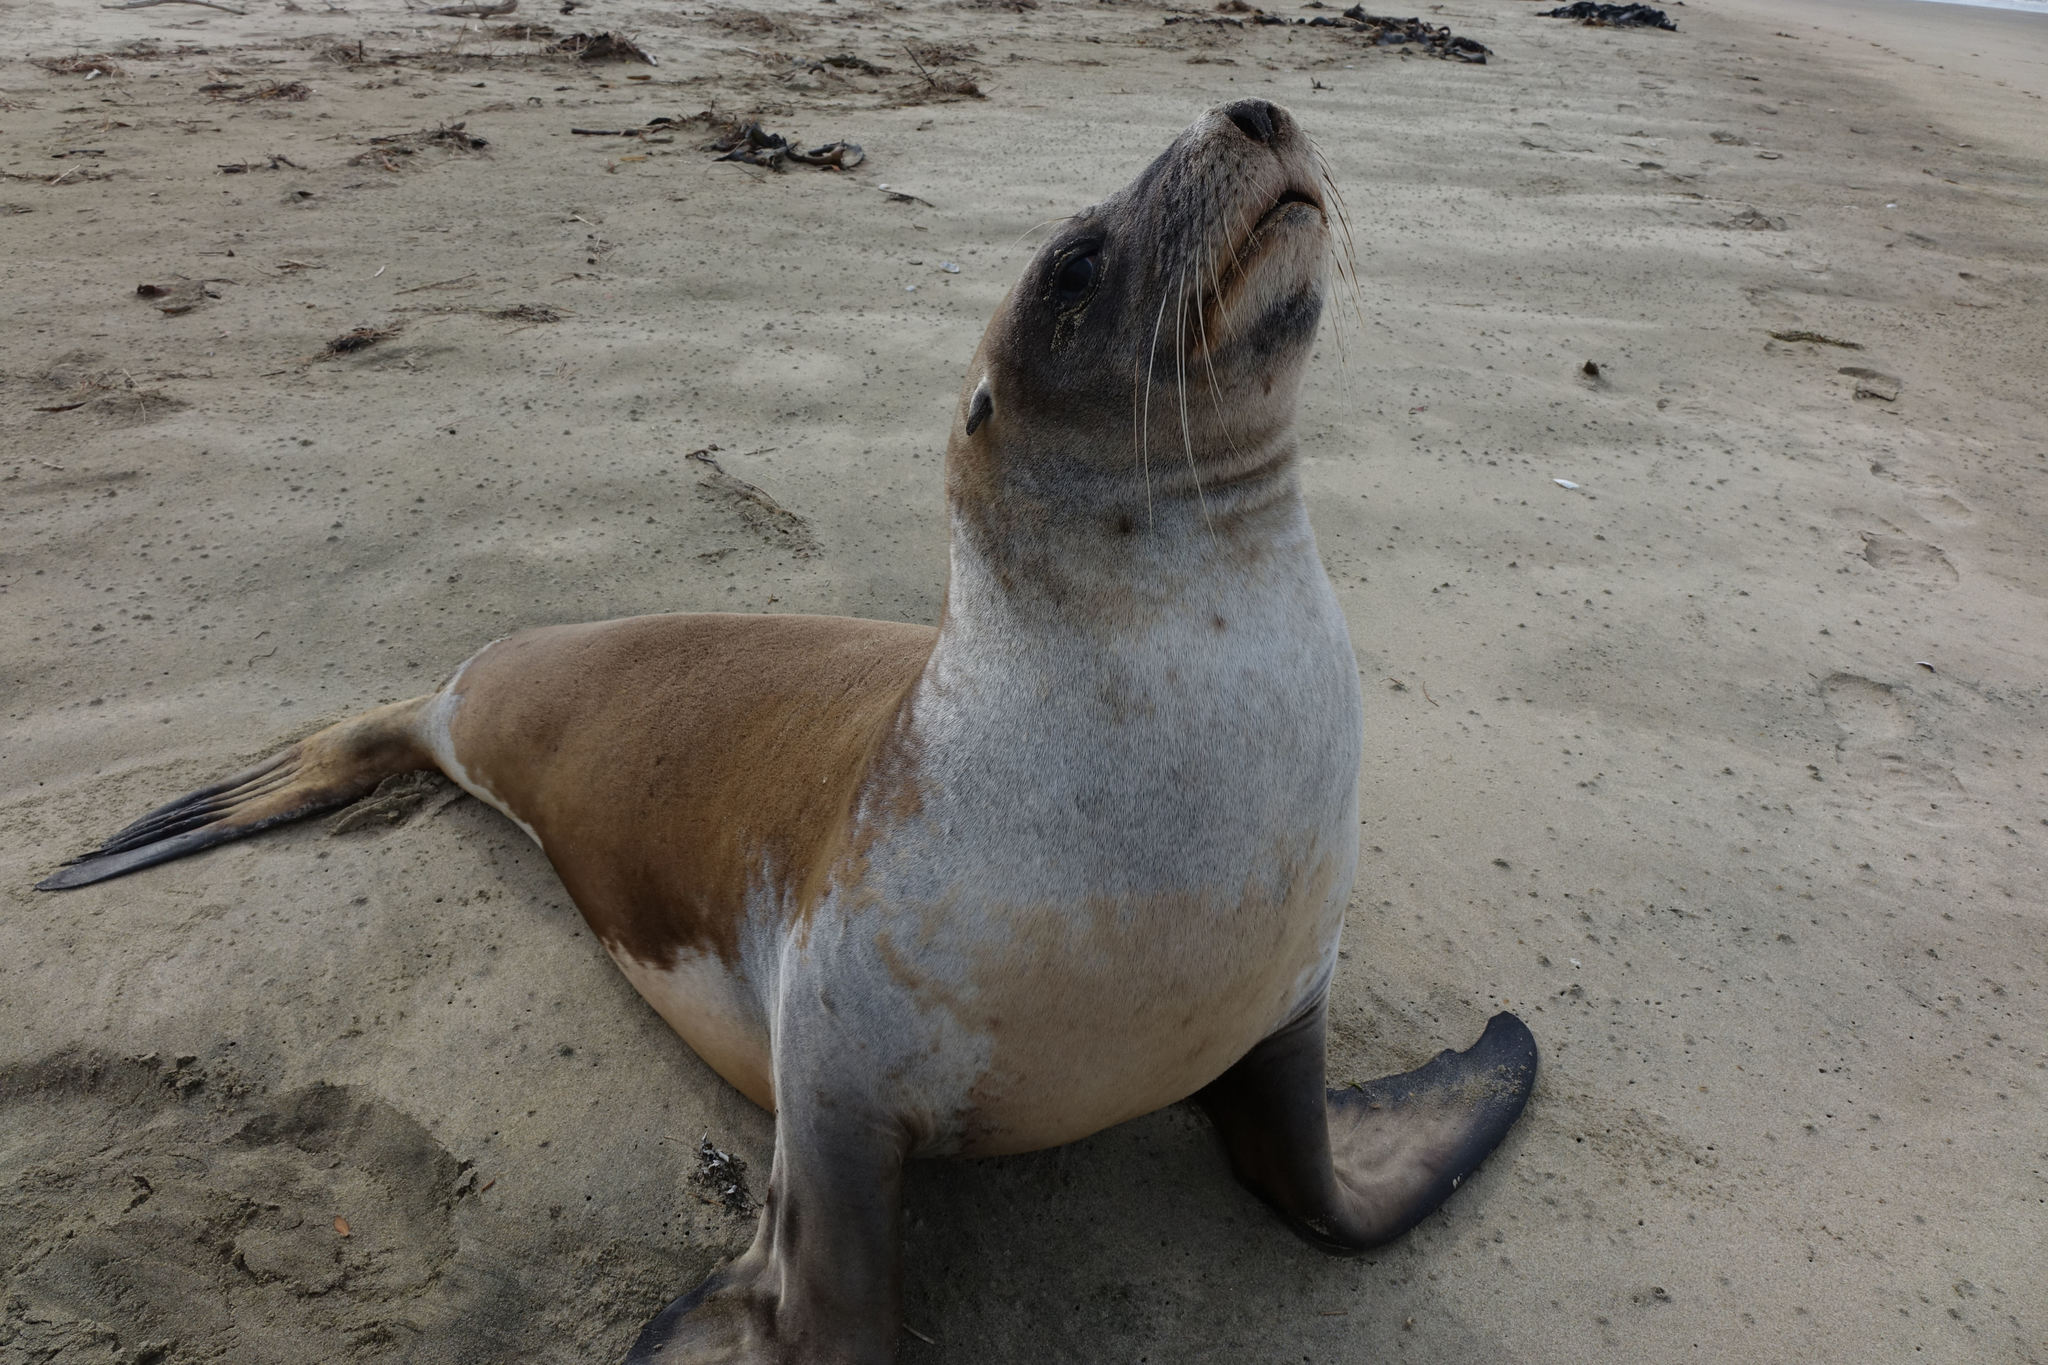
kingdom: Animalia
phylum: Chordata
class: Mammalia
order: Carnivora
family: Otariidae
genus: Phocarctos
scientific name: Phocarctos hookeri
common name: New zealand sea lion
